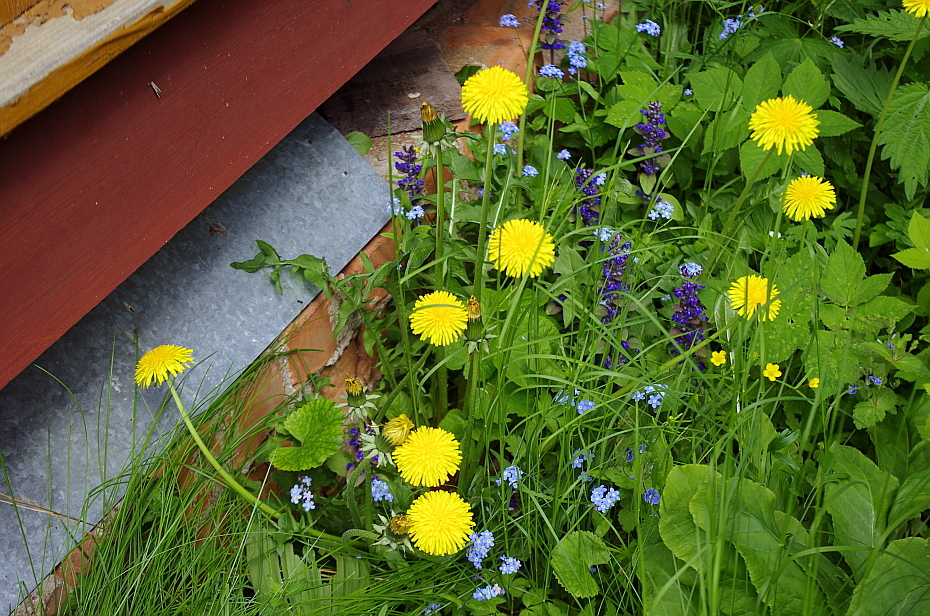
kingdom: Plantae
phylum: Tracheophyta
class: Magnoliopsida
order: Asterales
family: Asteraceae
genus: Taraxacum
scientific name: Taraxacum officinale
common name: Common dandelion
